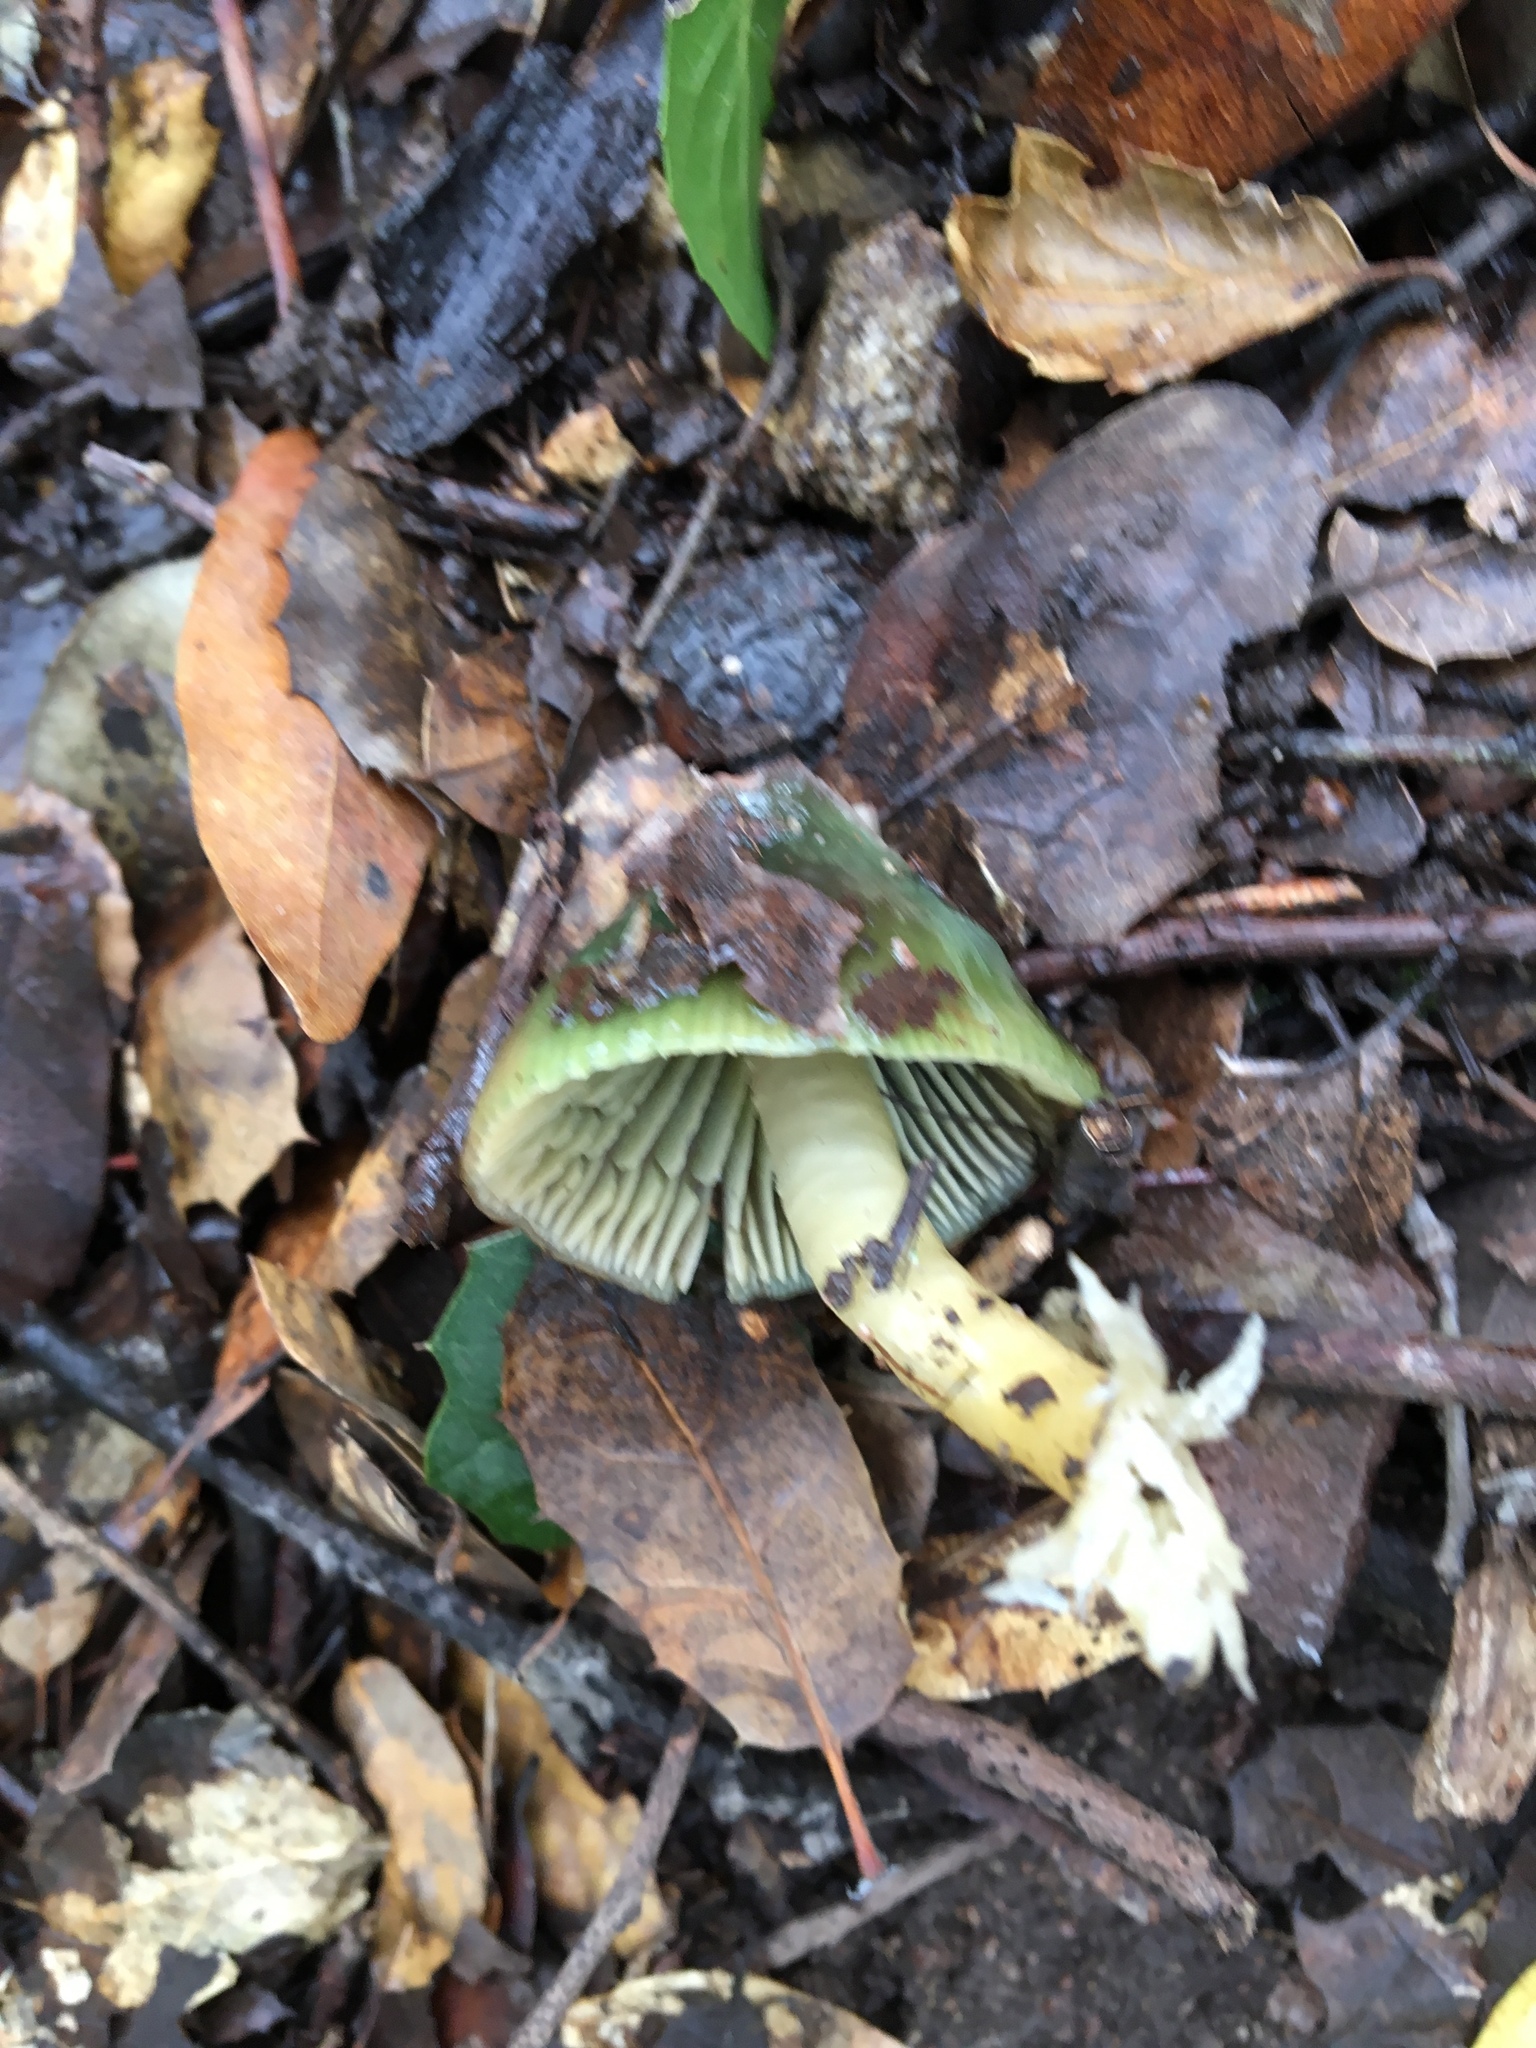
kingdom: Fungi
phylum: Basidiomycota
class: Agaricomycetes
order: Agaricales
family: Hygrophoraceae
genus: Gliophorus
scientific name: Gliophorus psittacinus
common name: Parrot wax-cap
